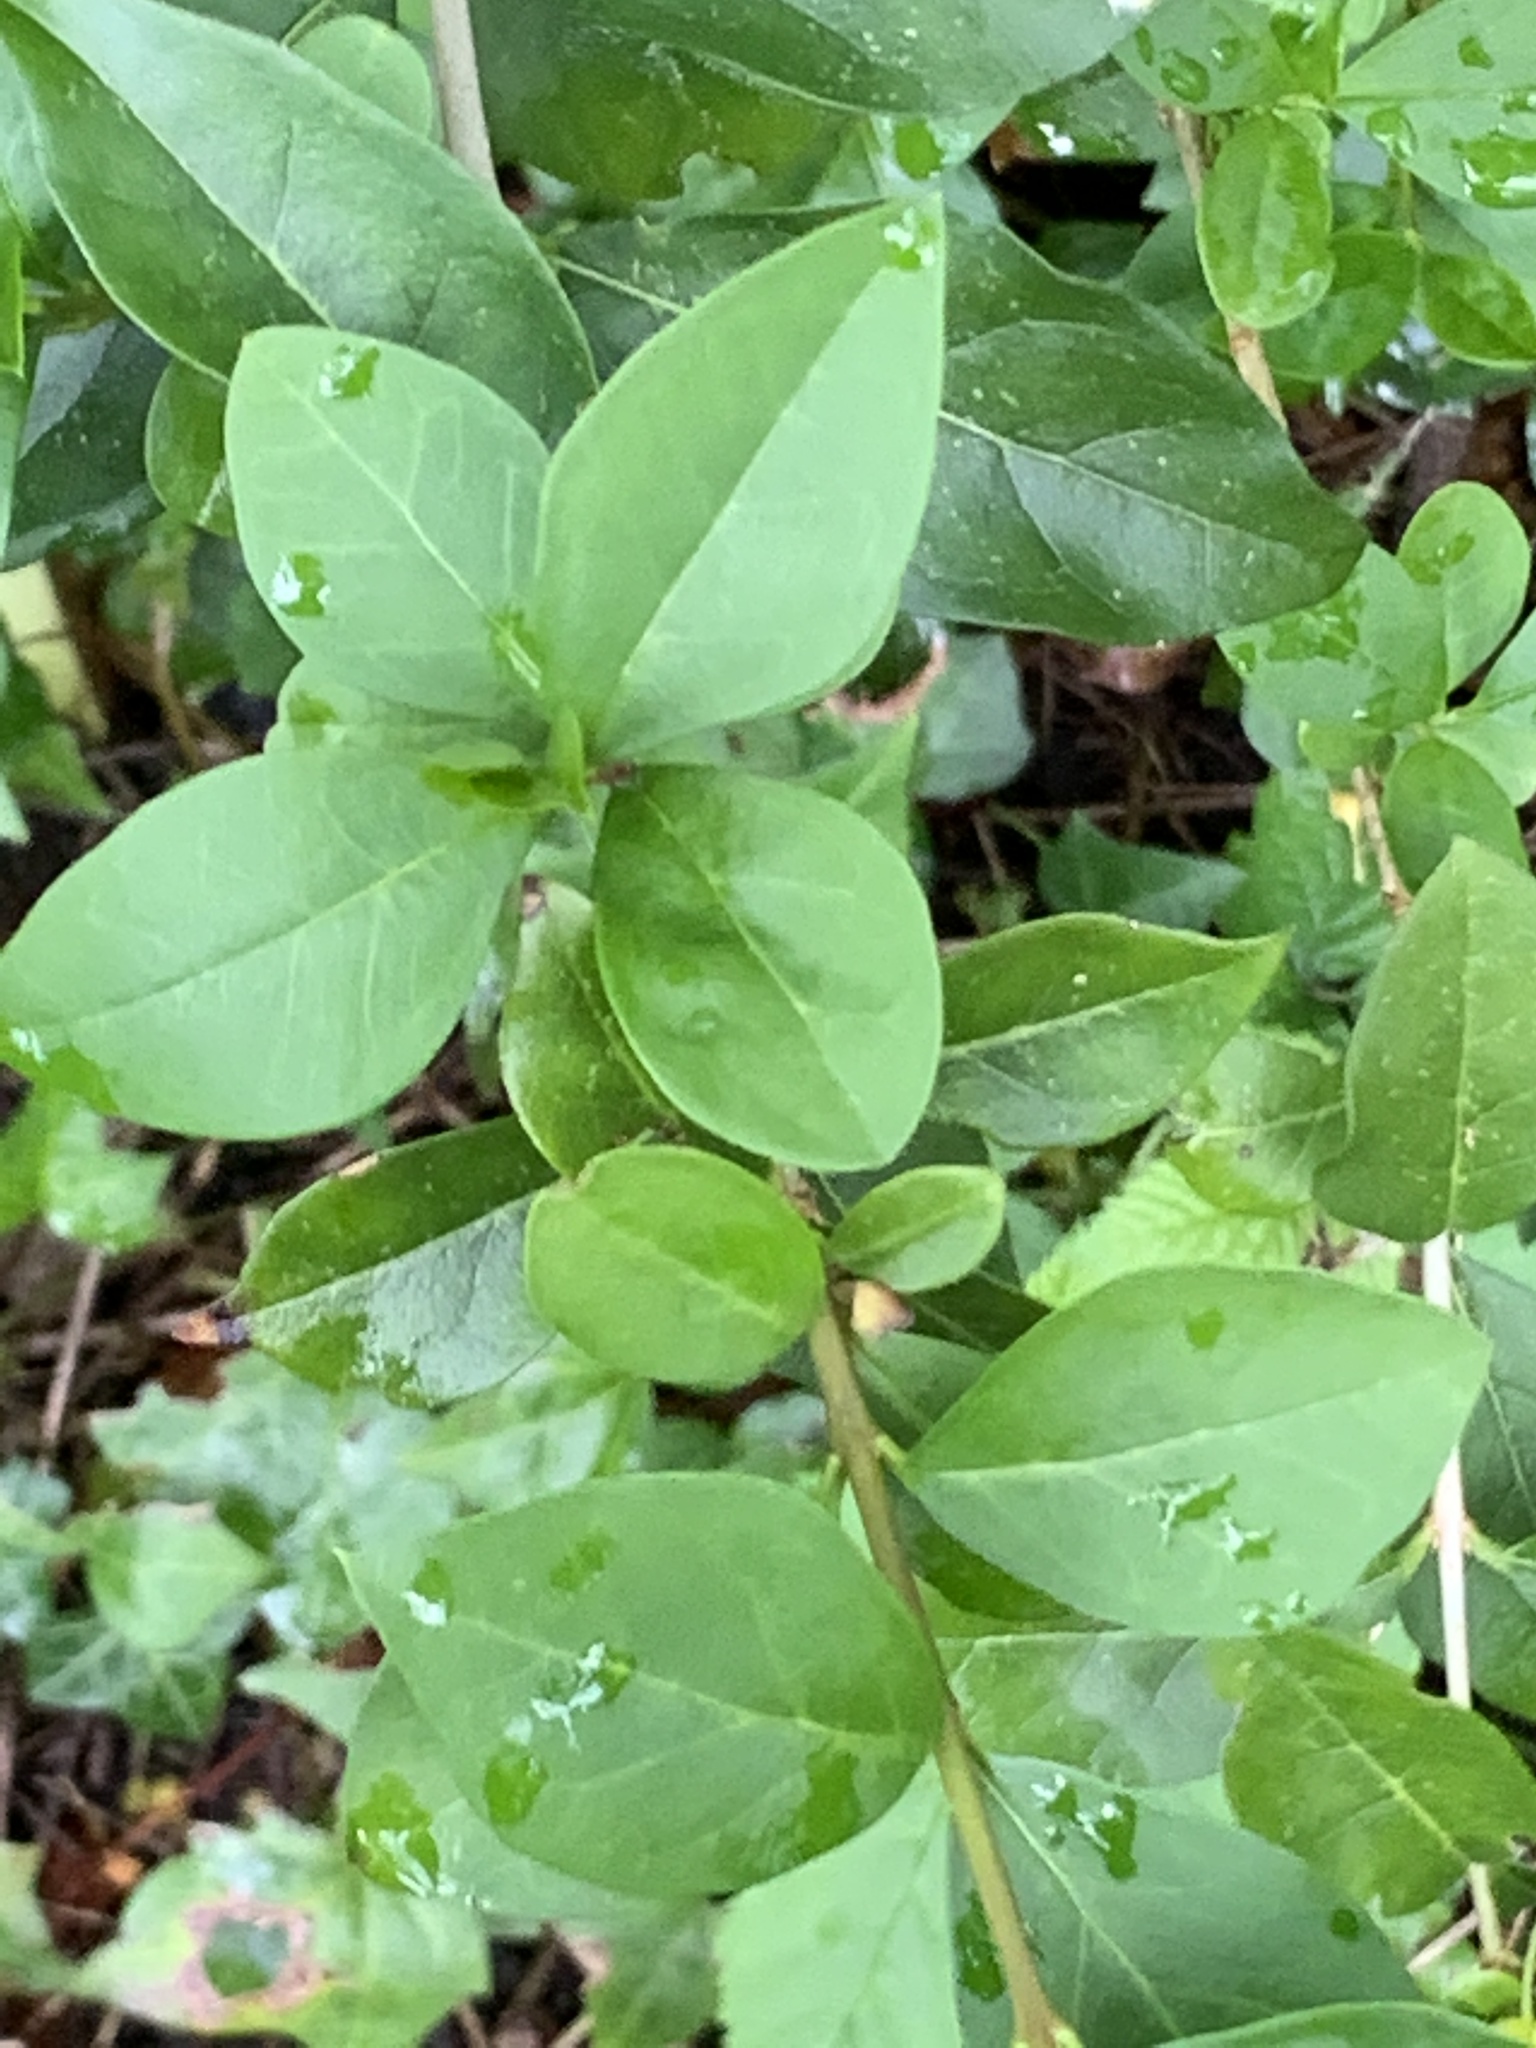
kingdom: Plantae
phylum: Tracheophyta
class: Magnoliopsida
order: Lamiales
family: Oleaceae
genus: Ligustrum
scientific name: Ligustrum ovalifolium
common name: California privet
